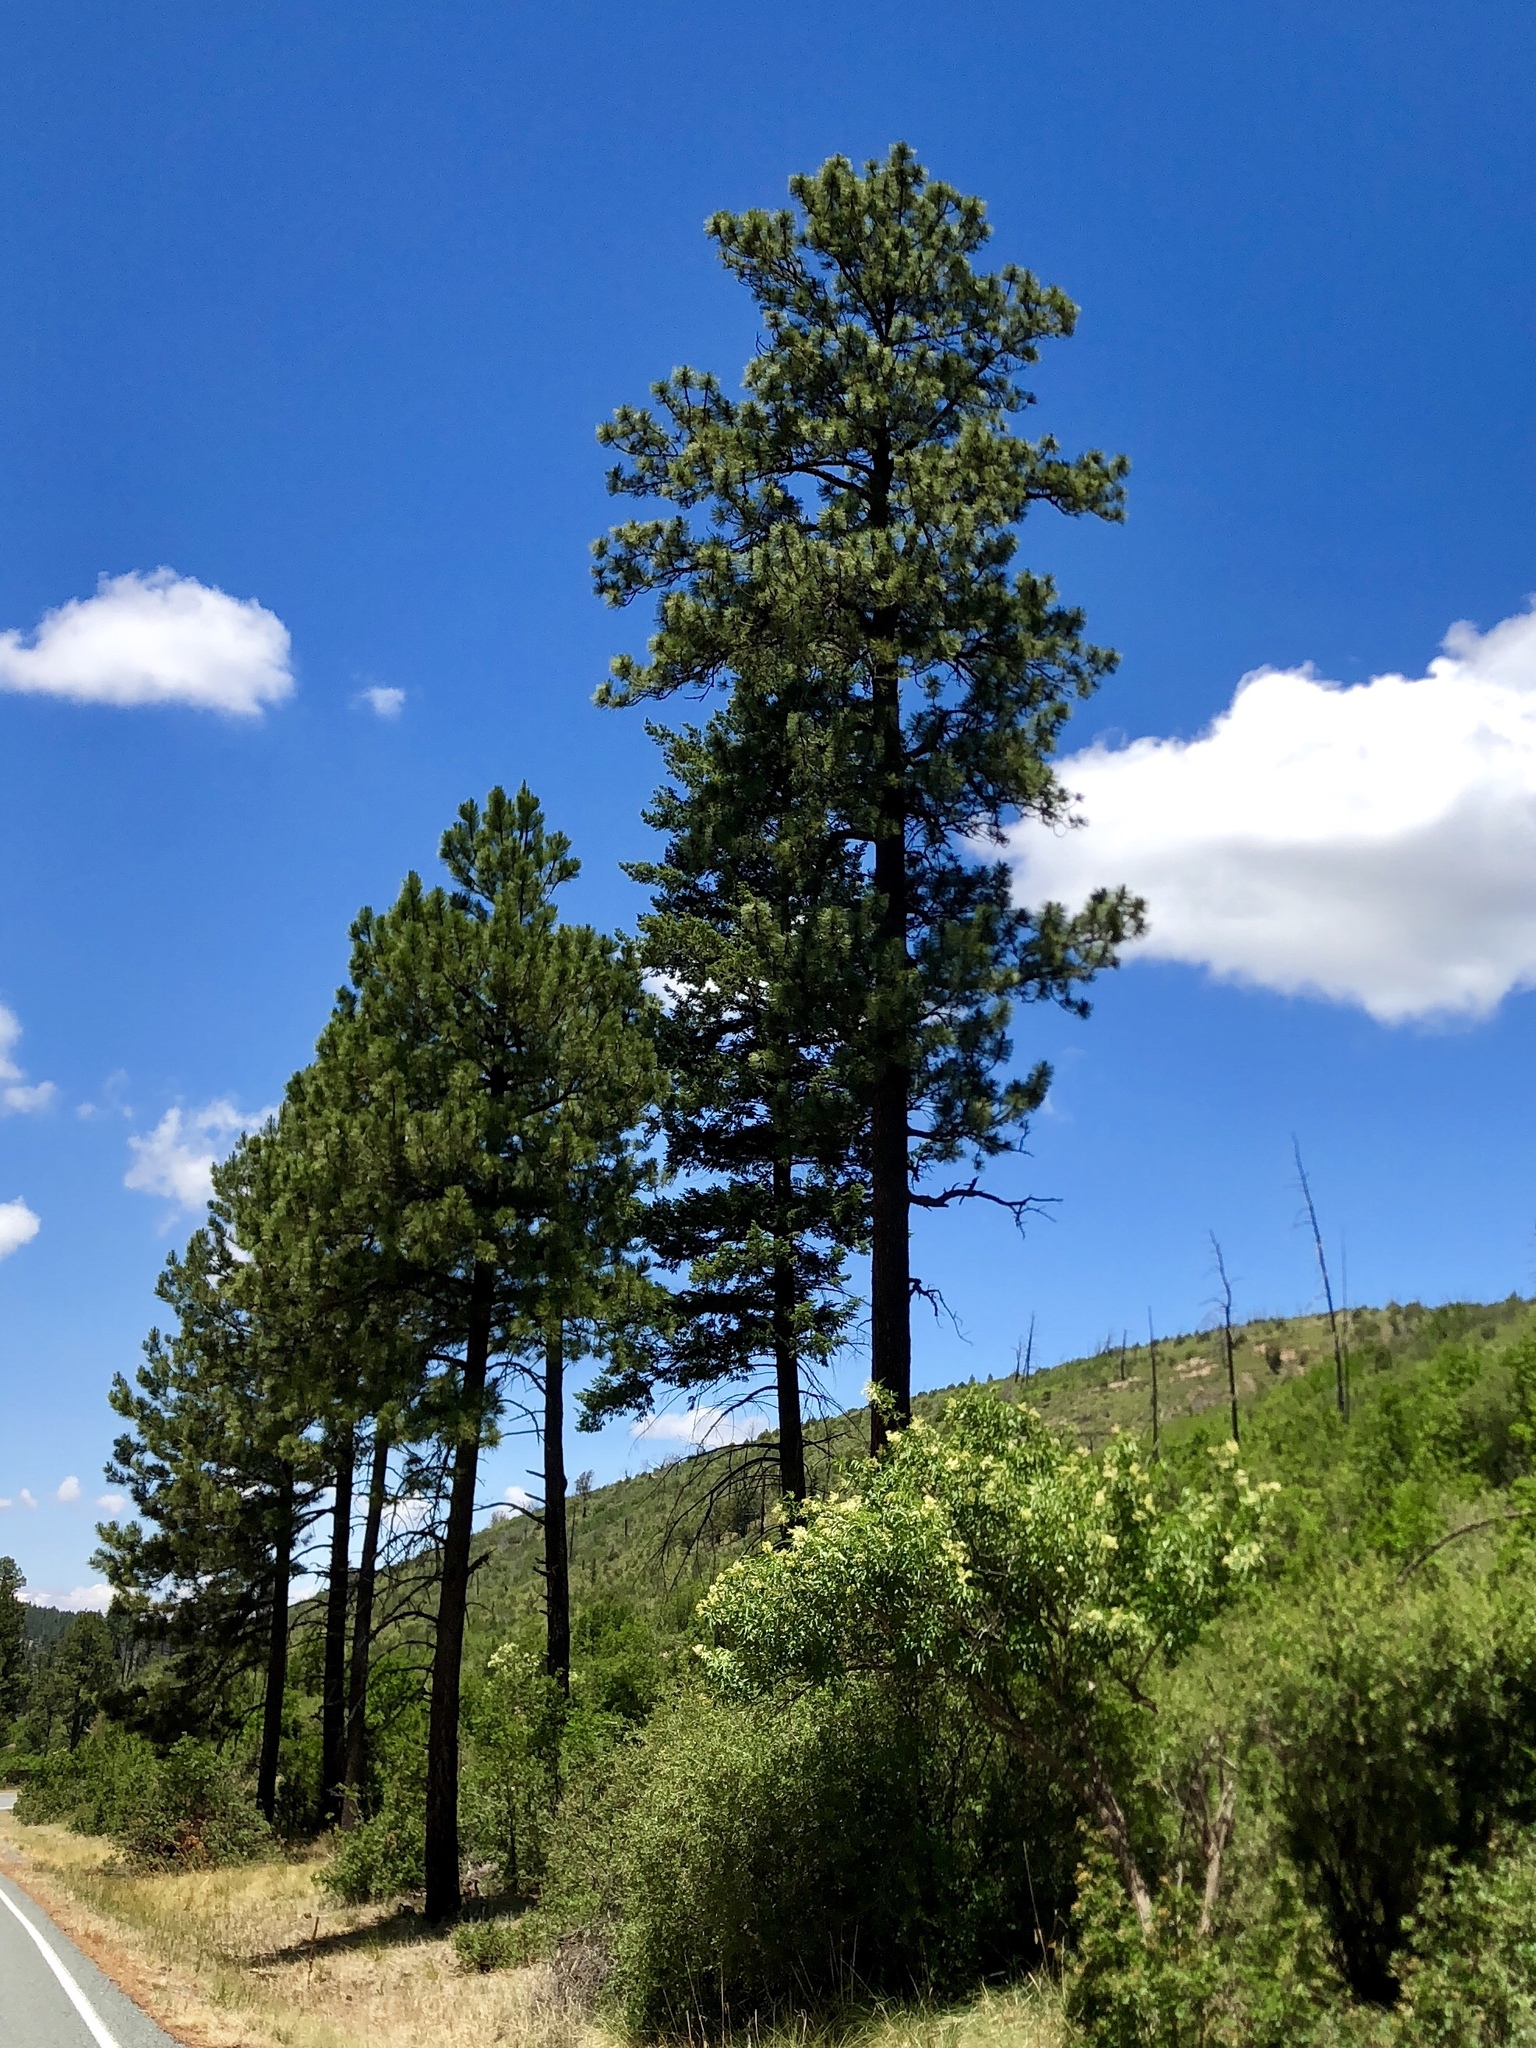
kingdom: Plantae
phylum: Tracheophyta
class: Pinopsida
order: Pinales
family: Pinaceae
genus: Pinus
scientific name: Pinus ponderosa
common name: Western yellow-pine
